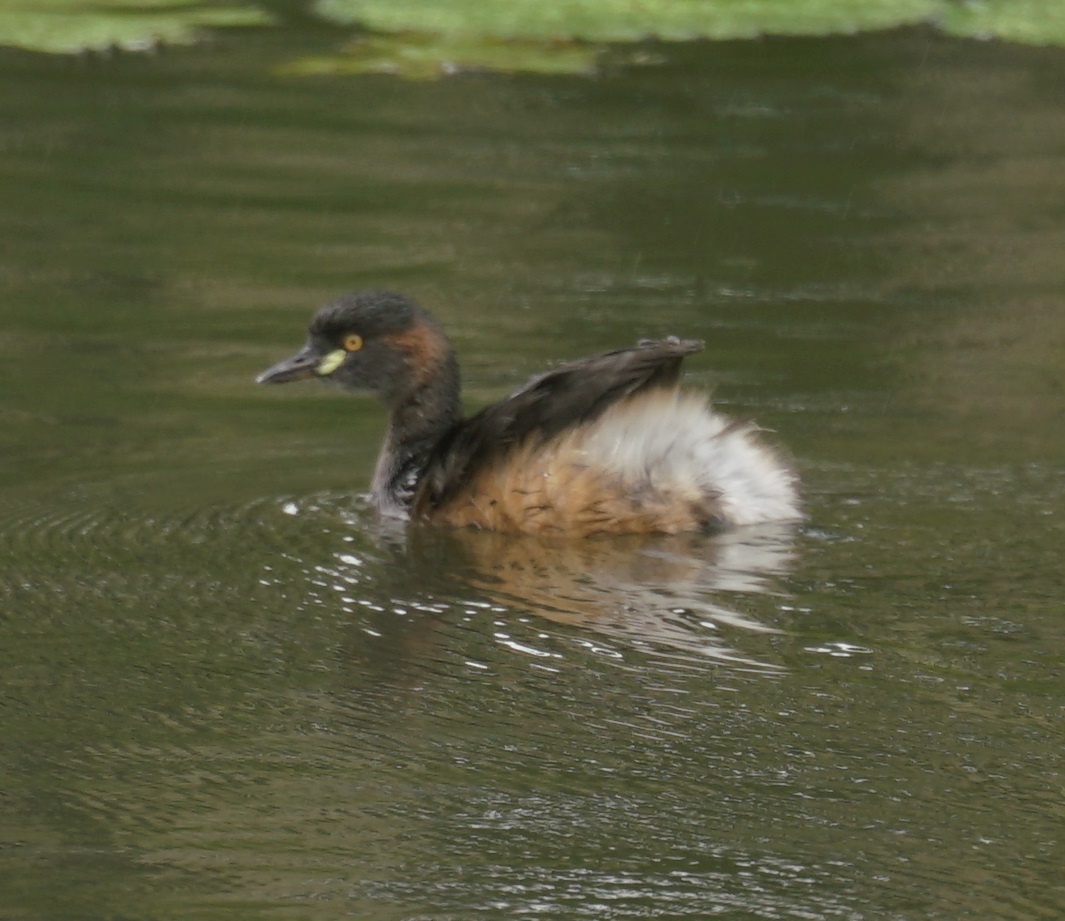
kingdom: Animalia
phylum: Chordata
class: Aves
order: Podicipediformes
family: Podicipedidae
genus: Tachybaptus
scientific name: Tachybaptus novaehollandiae
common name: Australasian grebe
